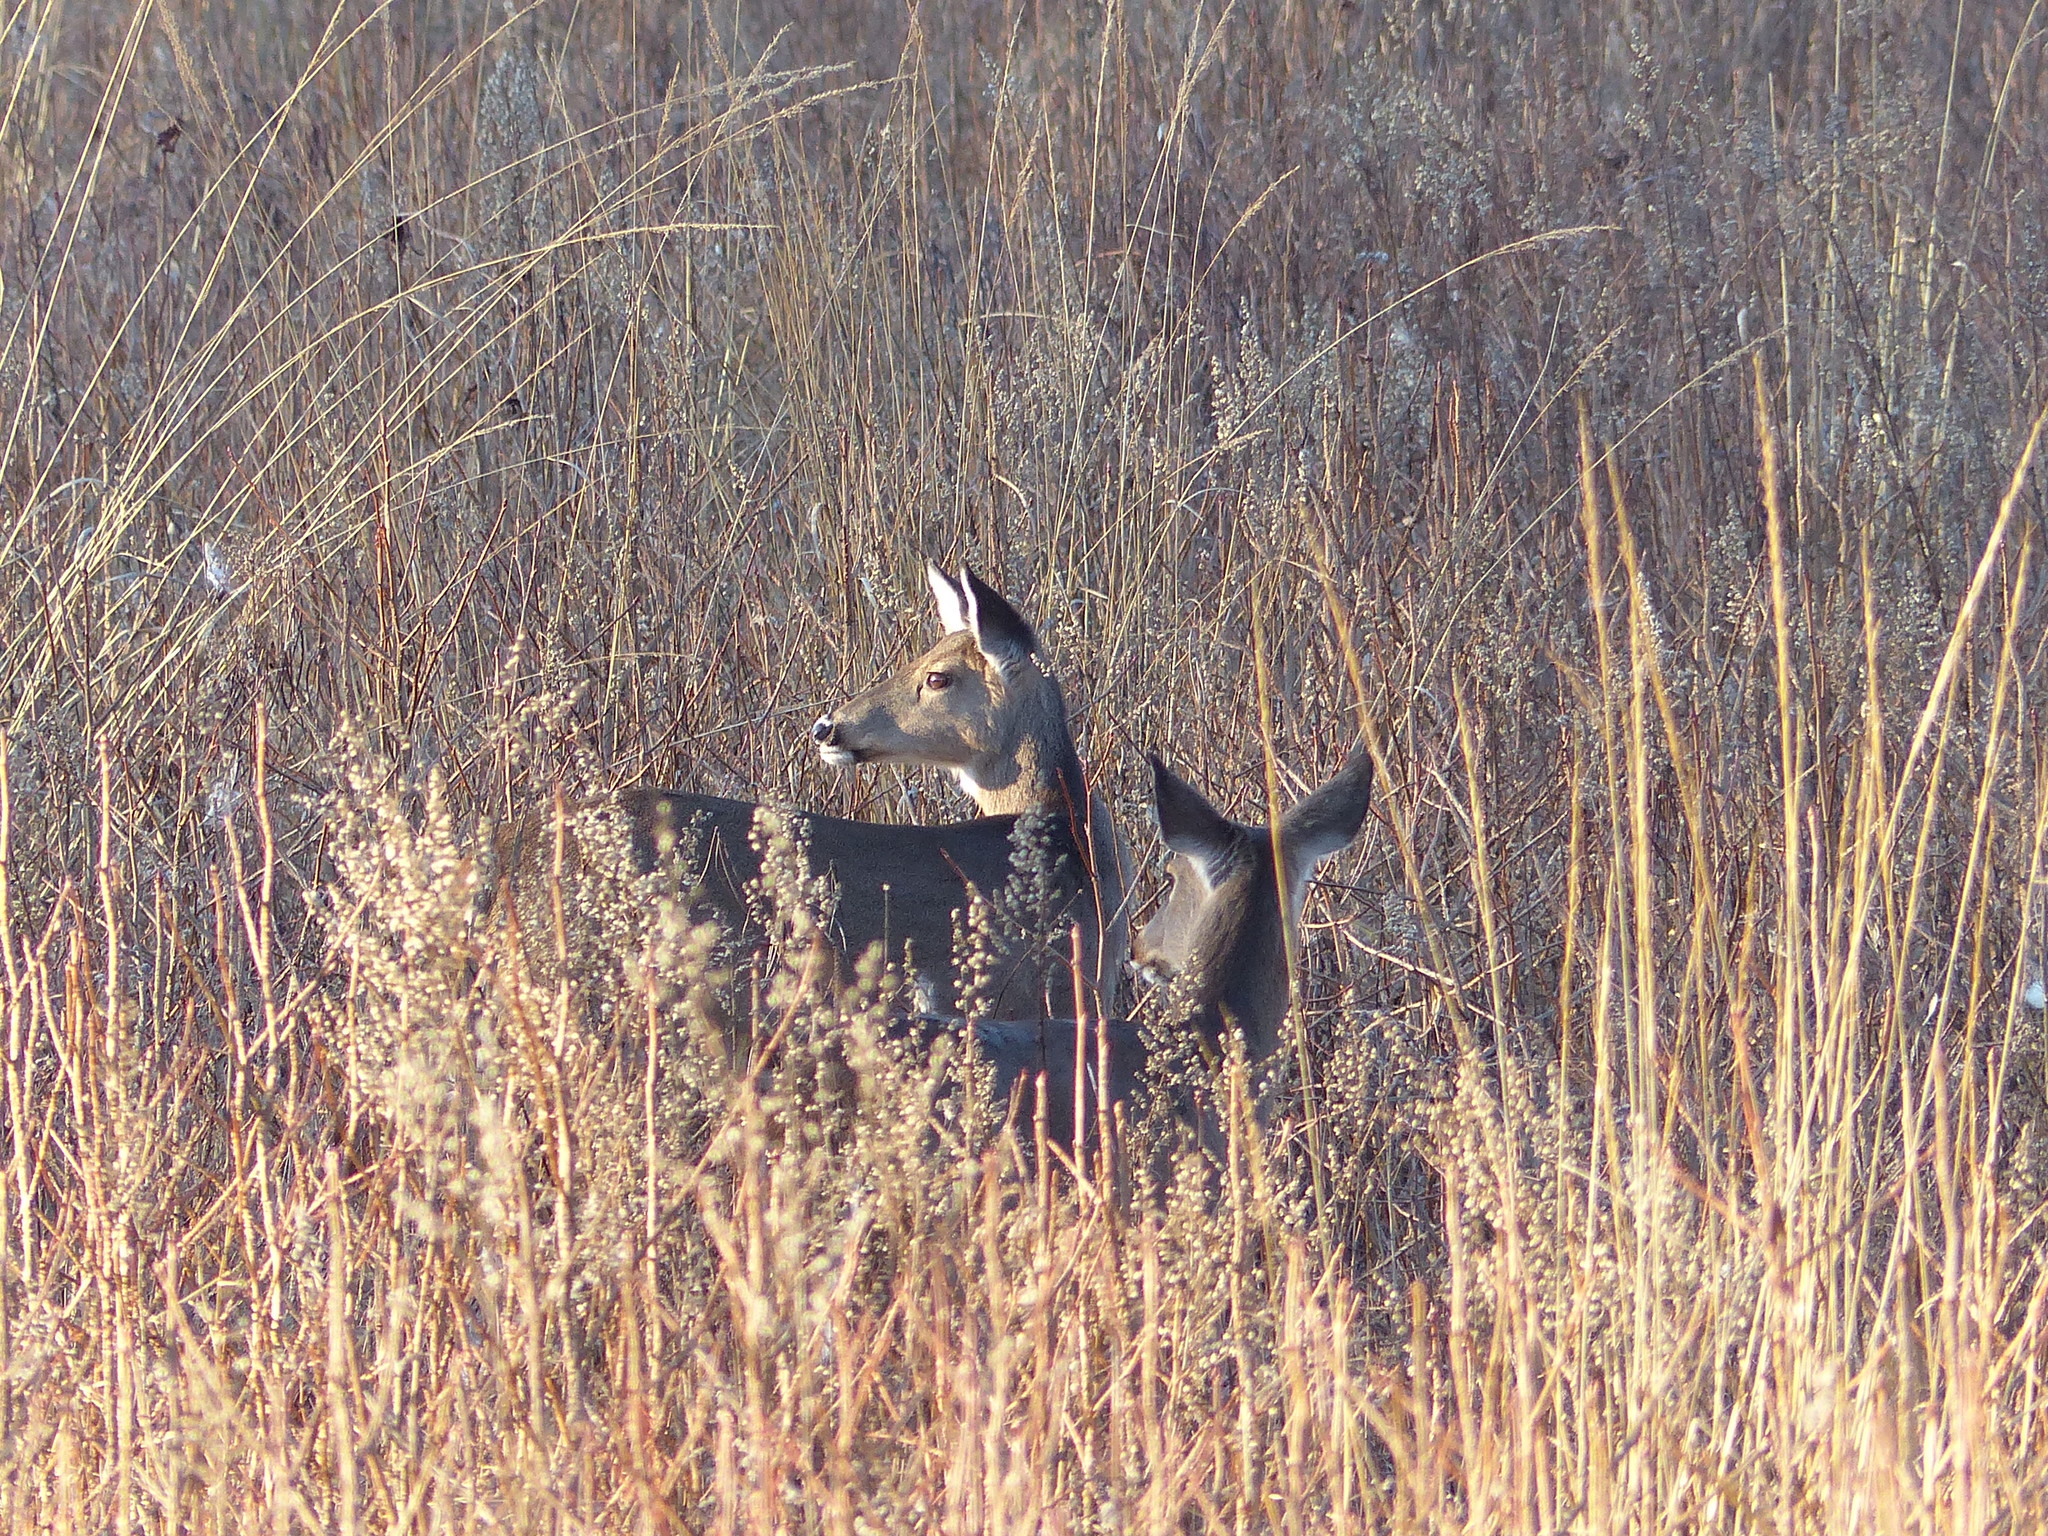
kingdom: Animalia
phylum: Chordata
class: Mammalia
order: Artiodactyla
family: Cervidae
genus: Odocoileus
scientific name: Odocoileus virginianus
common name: White-tailed deer
